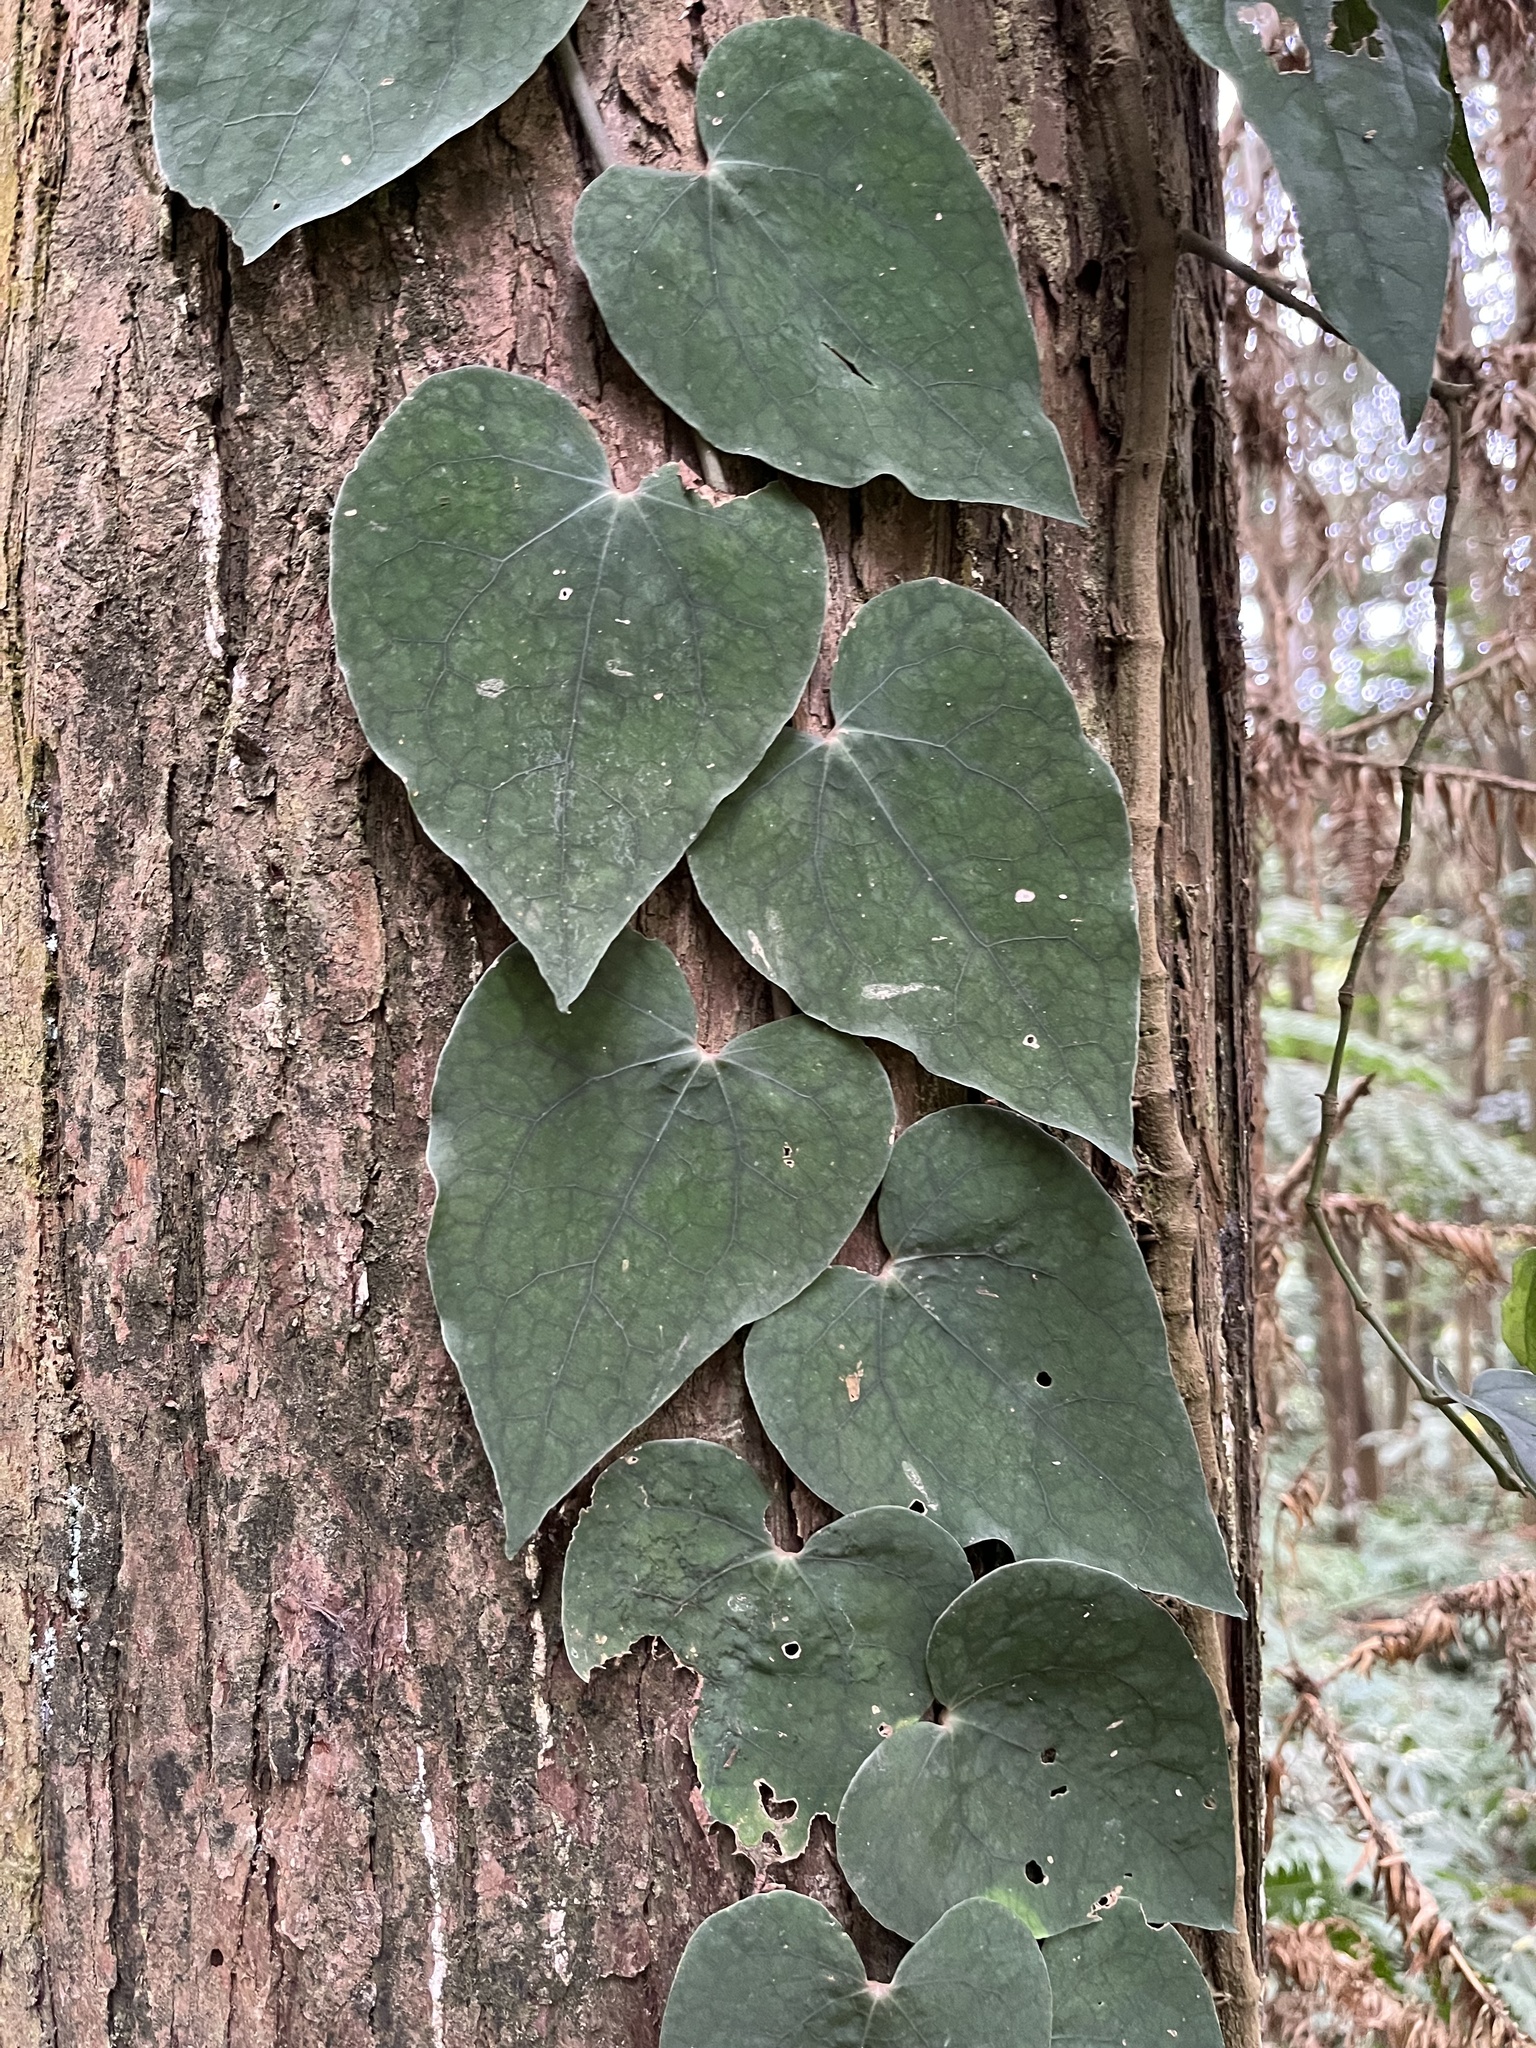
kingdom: Plantae
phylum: Tracheophyta
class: Magnoliopsida
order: Piperales
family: Piperaceae
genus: Piper
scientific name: Piper taiwanense
